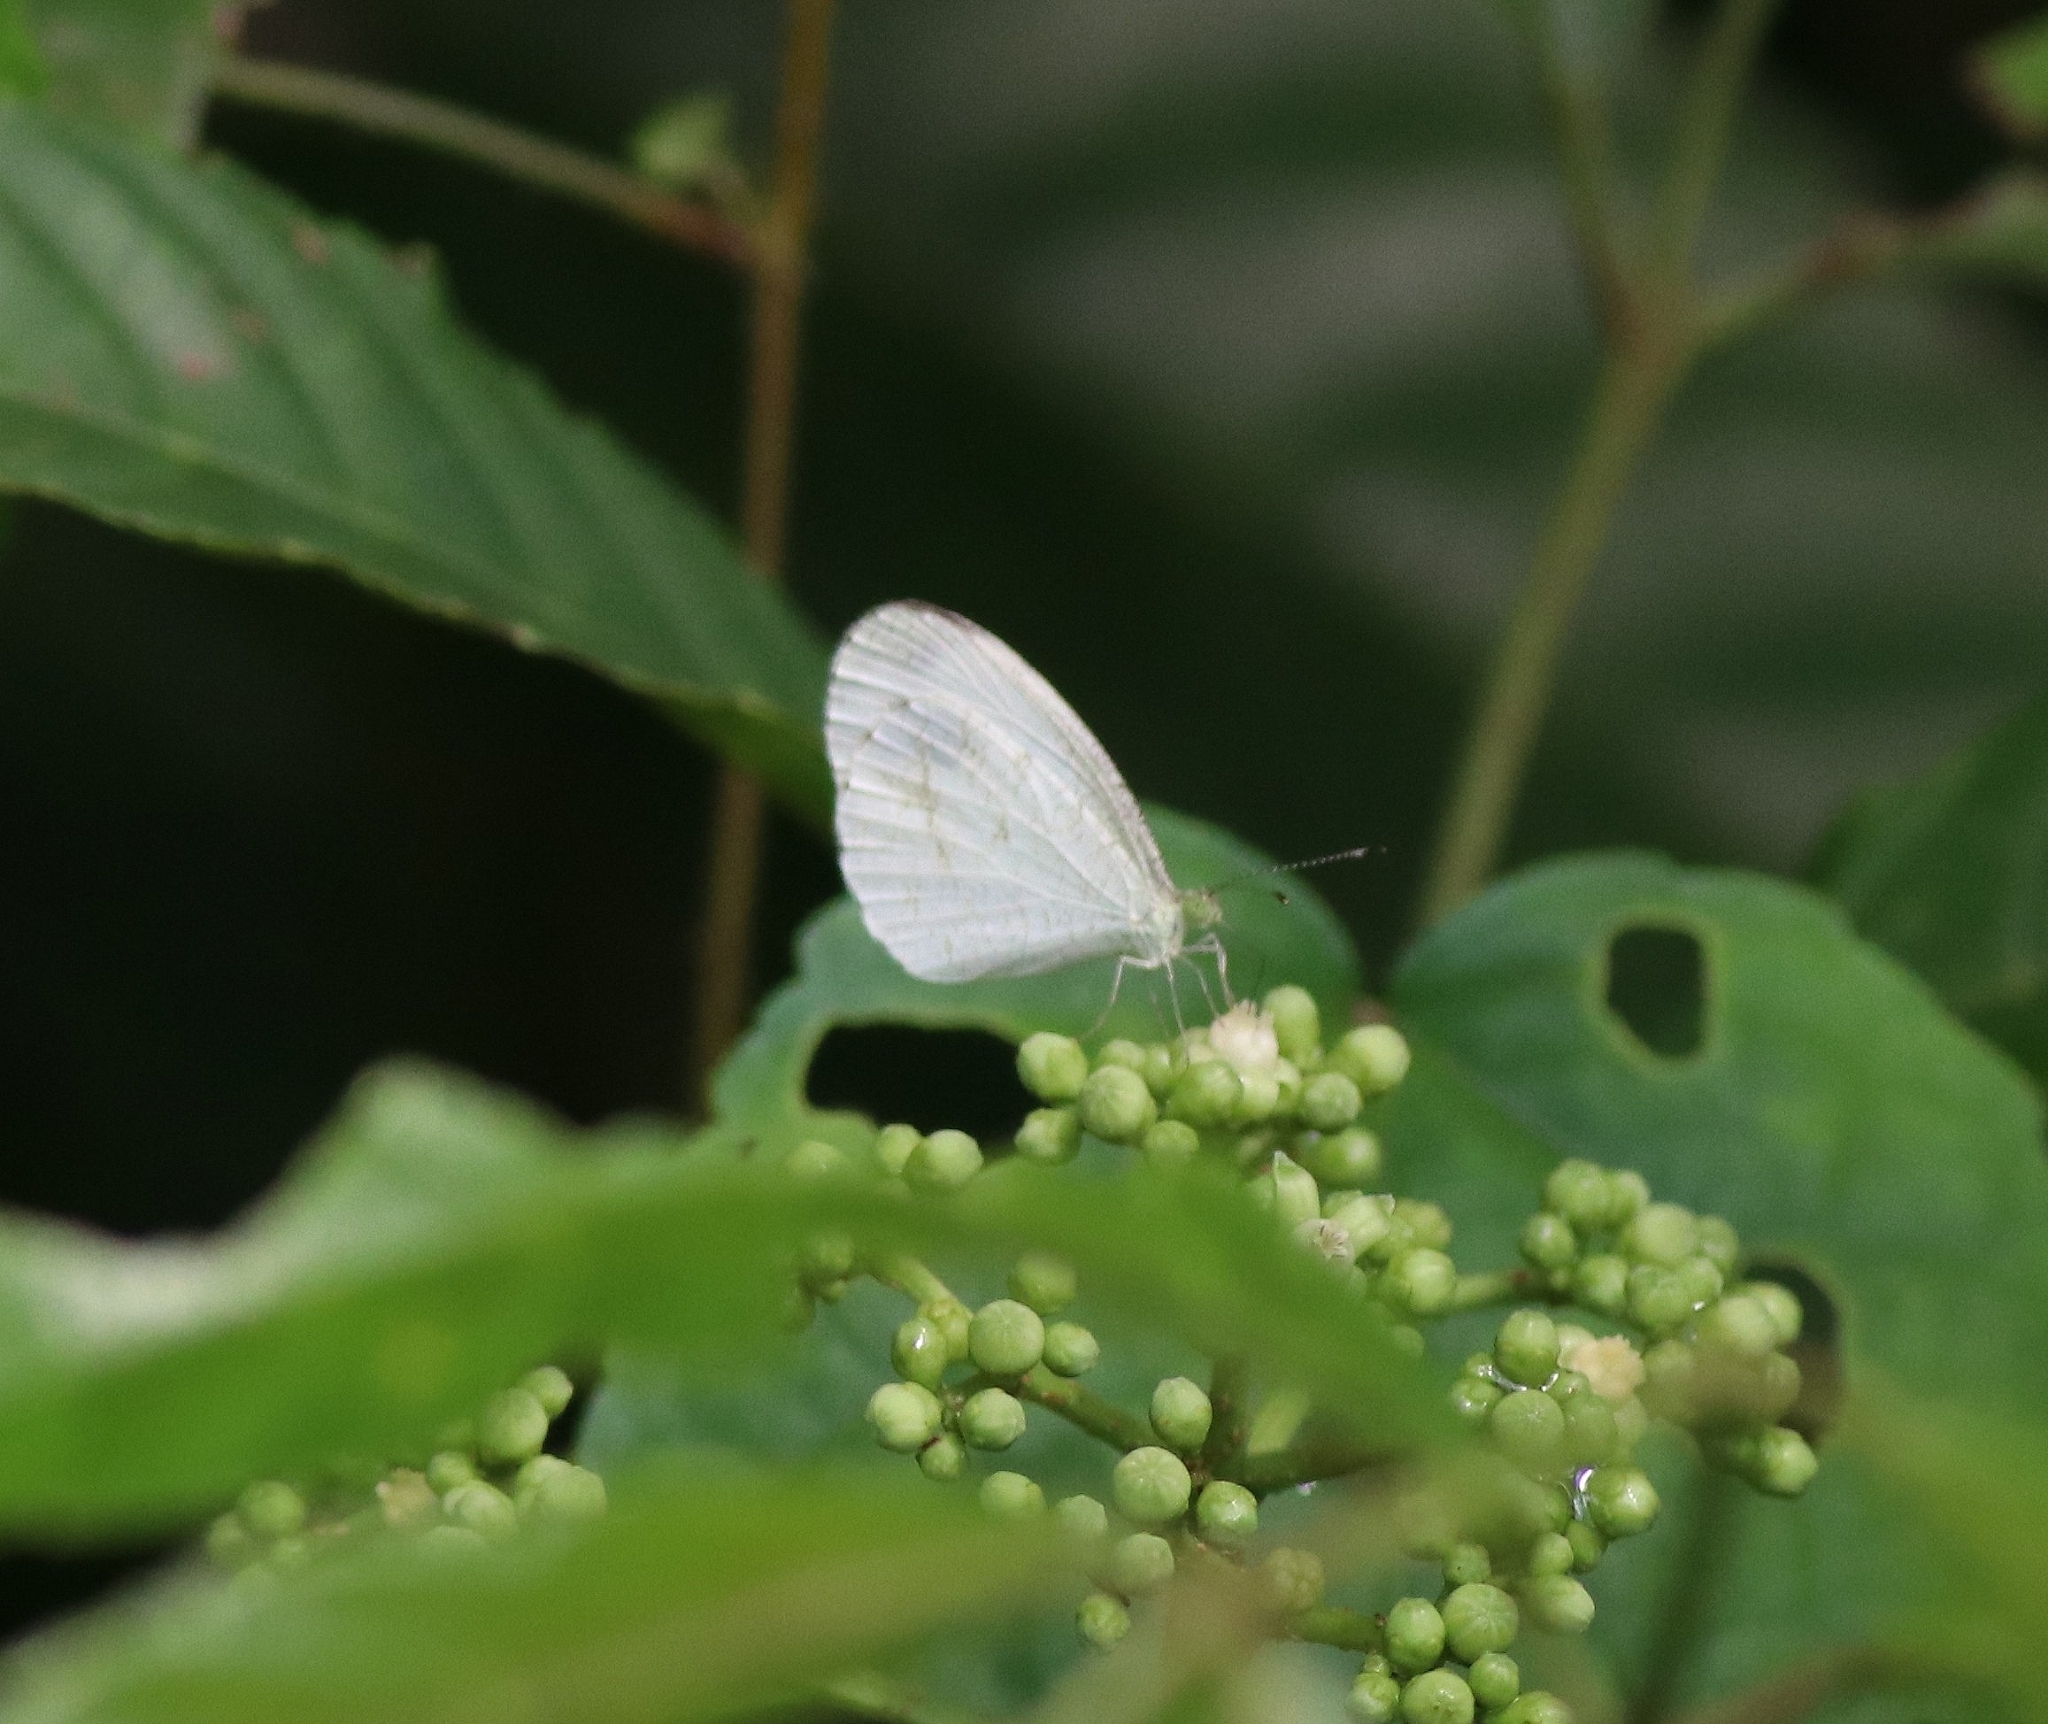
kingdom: Animalia
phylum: Arthropoda
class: Insecta
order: Lepidoptera
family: Pieridae
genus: Leptosia
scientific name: Leptosia nina
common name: Psyche
